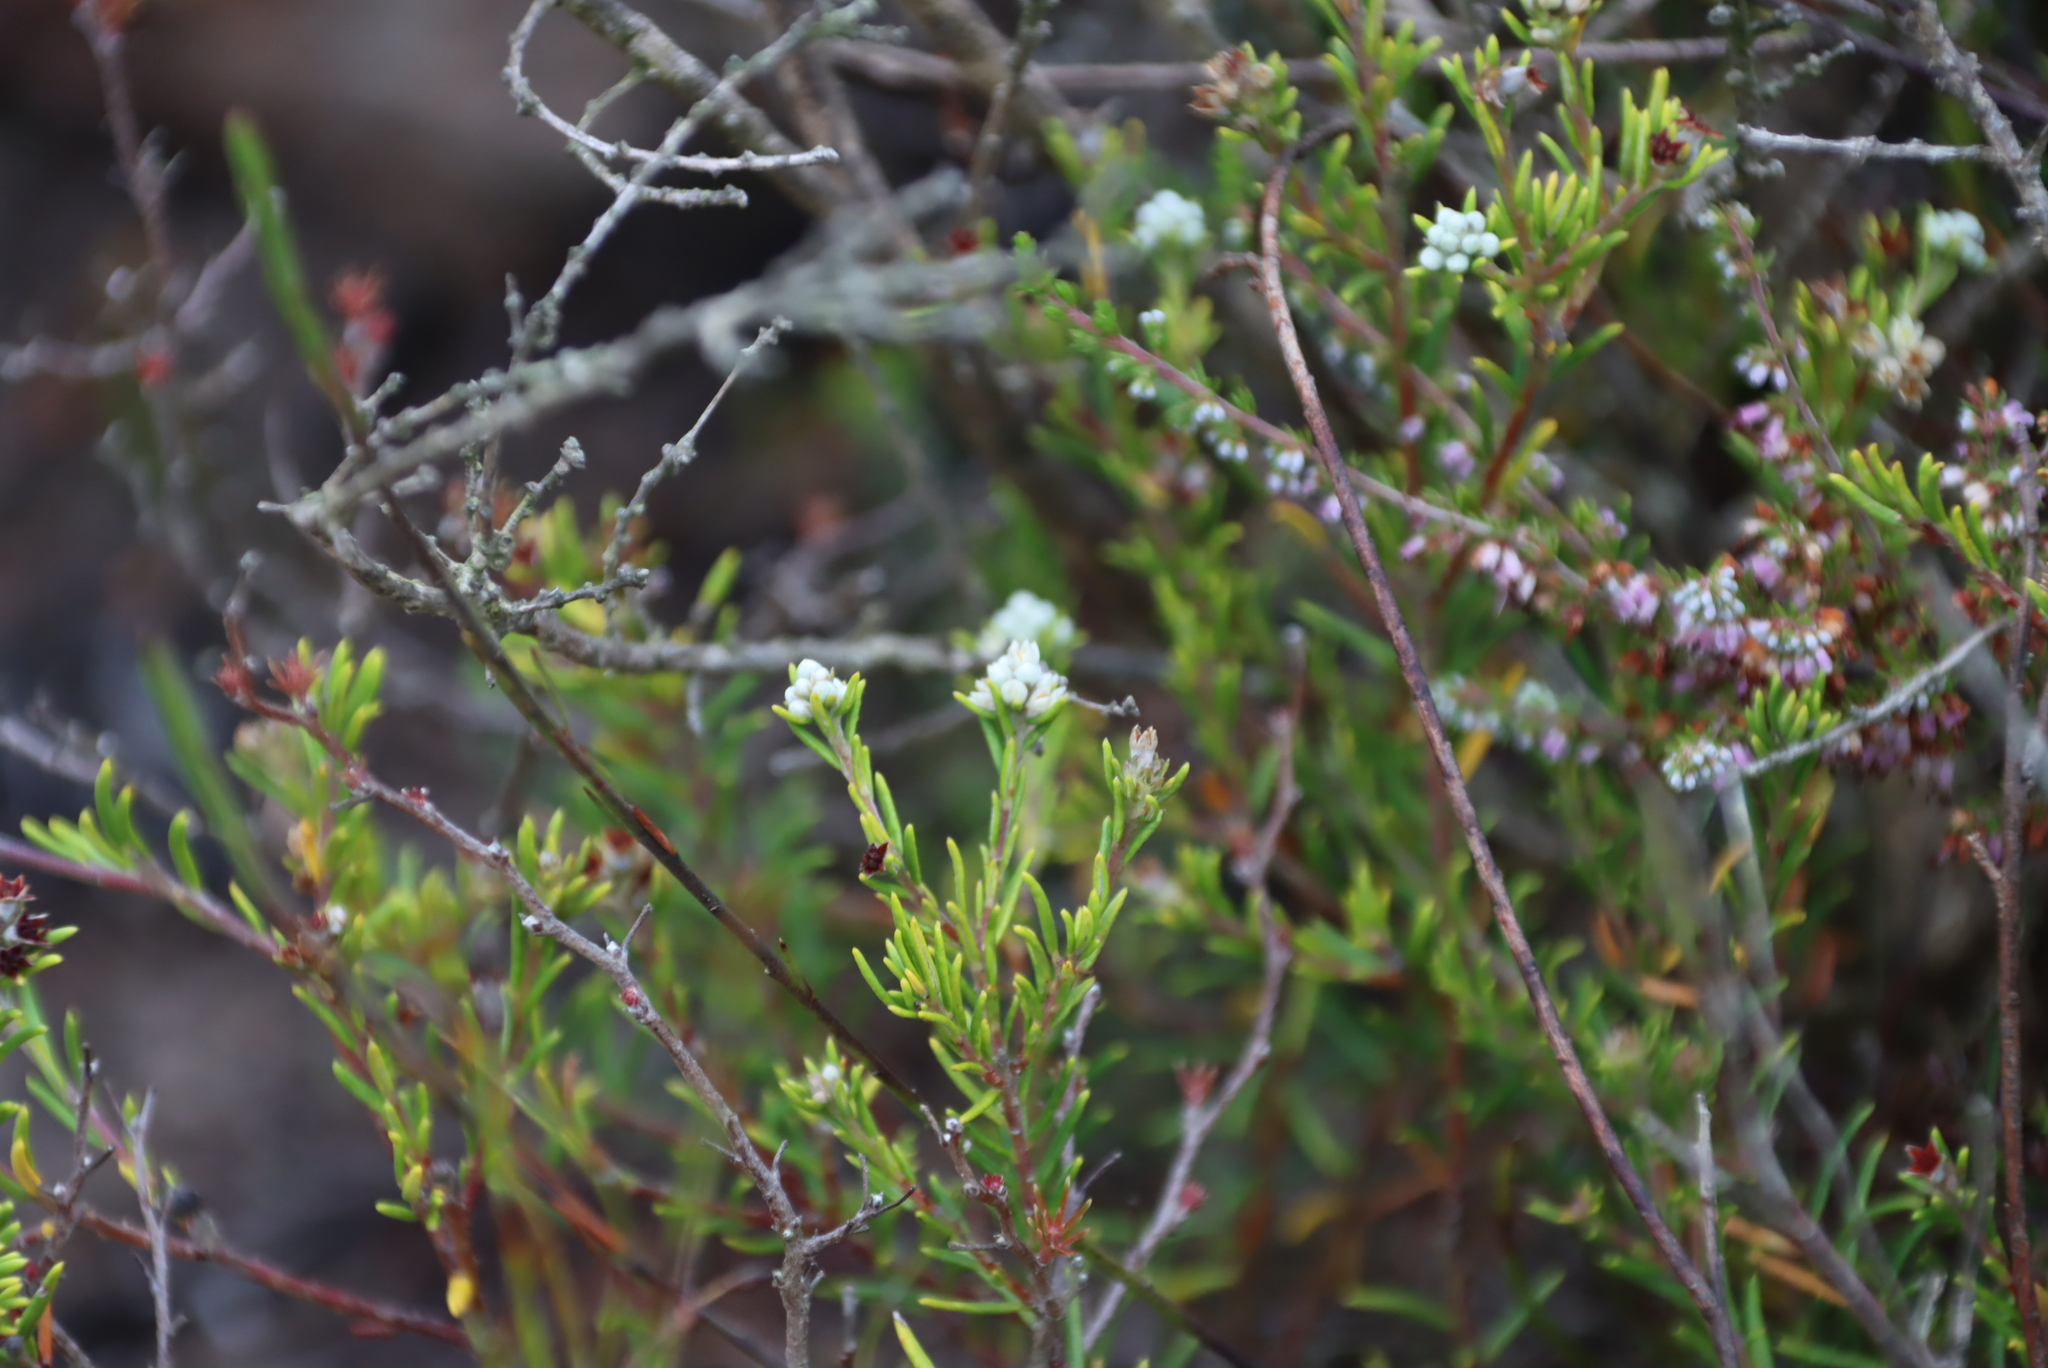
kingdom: Plantae
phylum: Tracheophyta
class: Magnoliopsida
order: Rosales
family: Rhamnaceae
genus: Phylica
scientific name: Phylica imberbis
